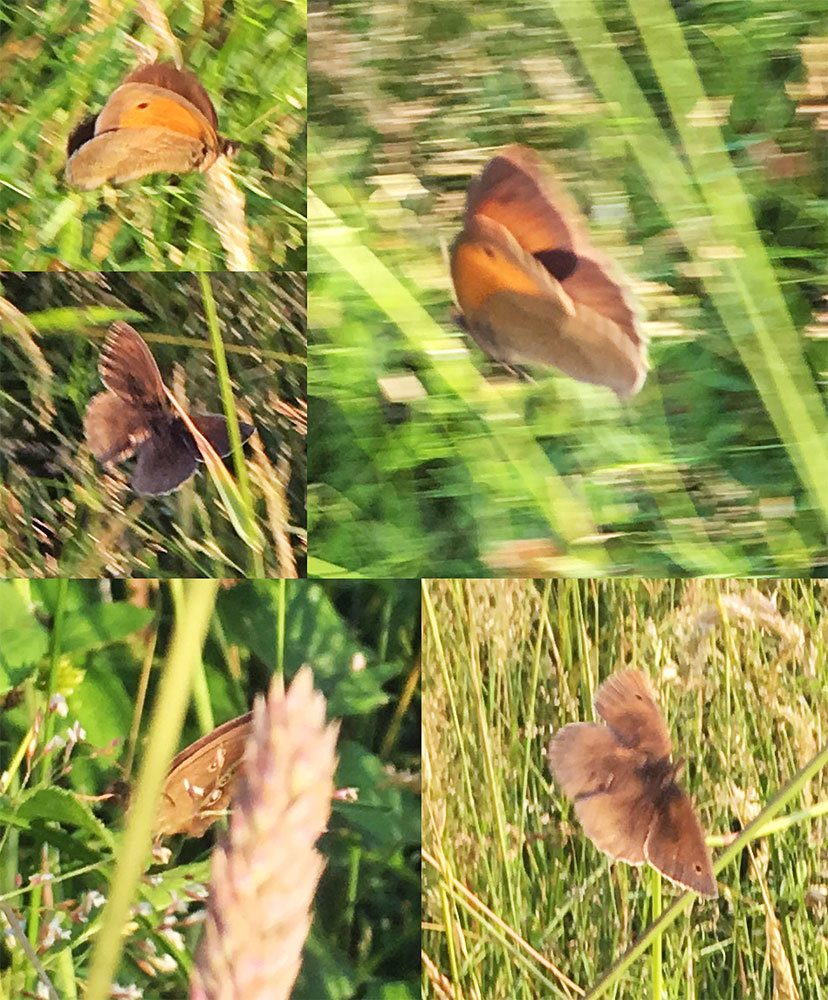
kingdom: Animalia
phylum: Arthropoda
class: Insecta
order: Lepidoptera
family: Nymphalidae
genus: Maniola
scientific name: Maniola jurtina
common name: Meadow brown
